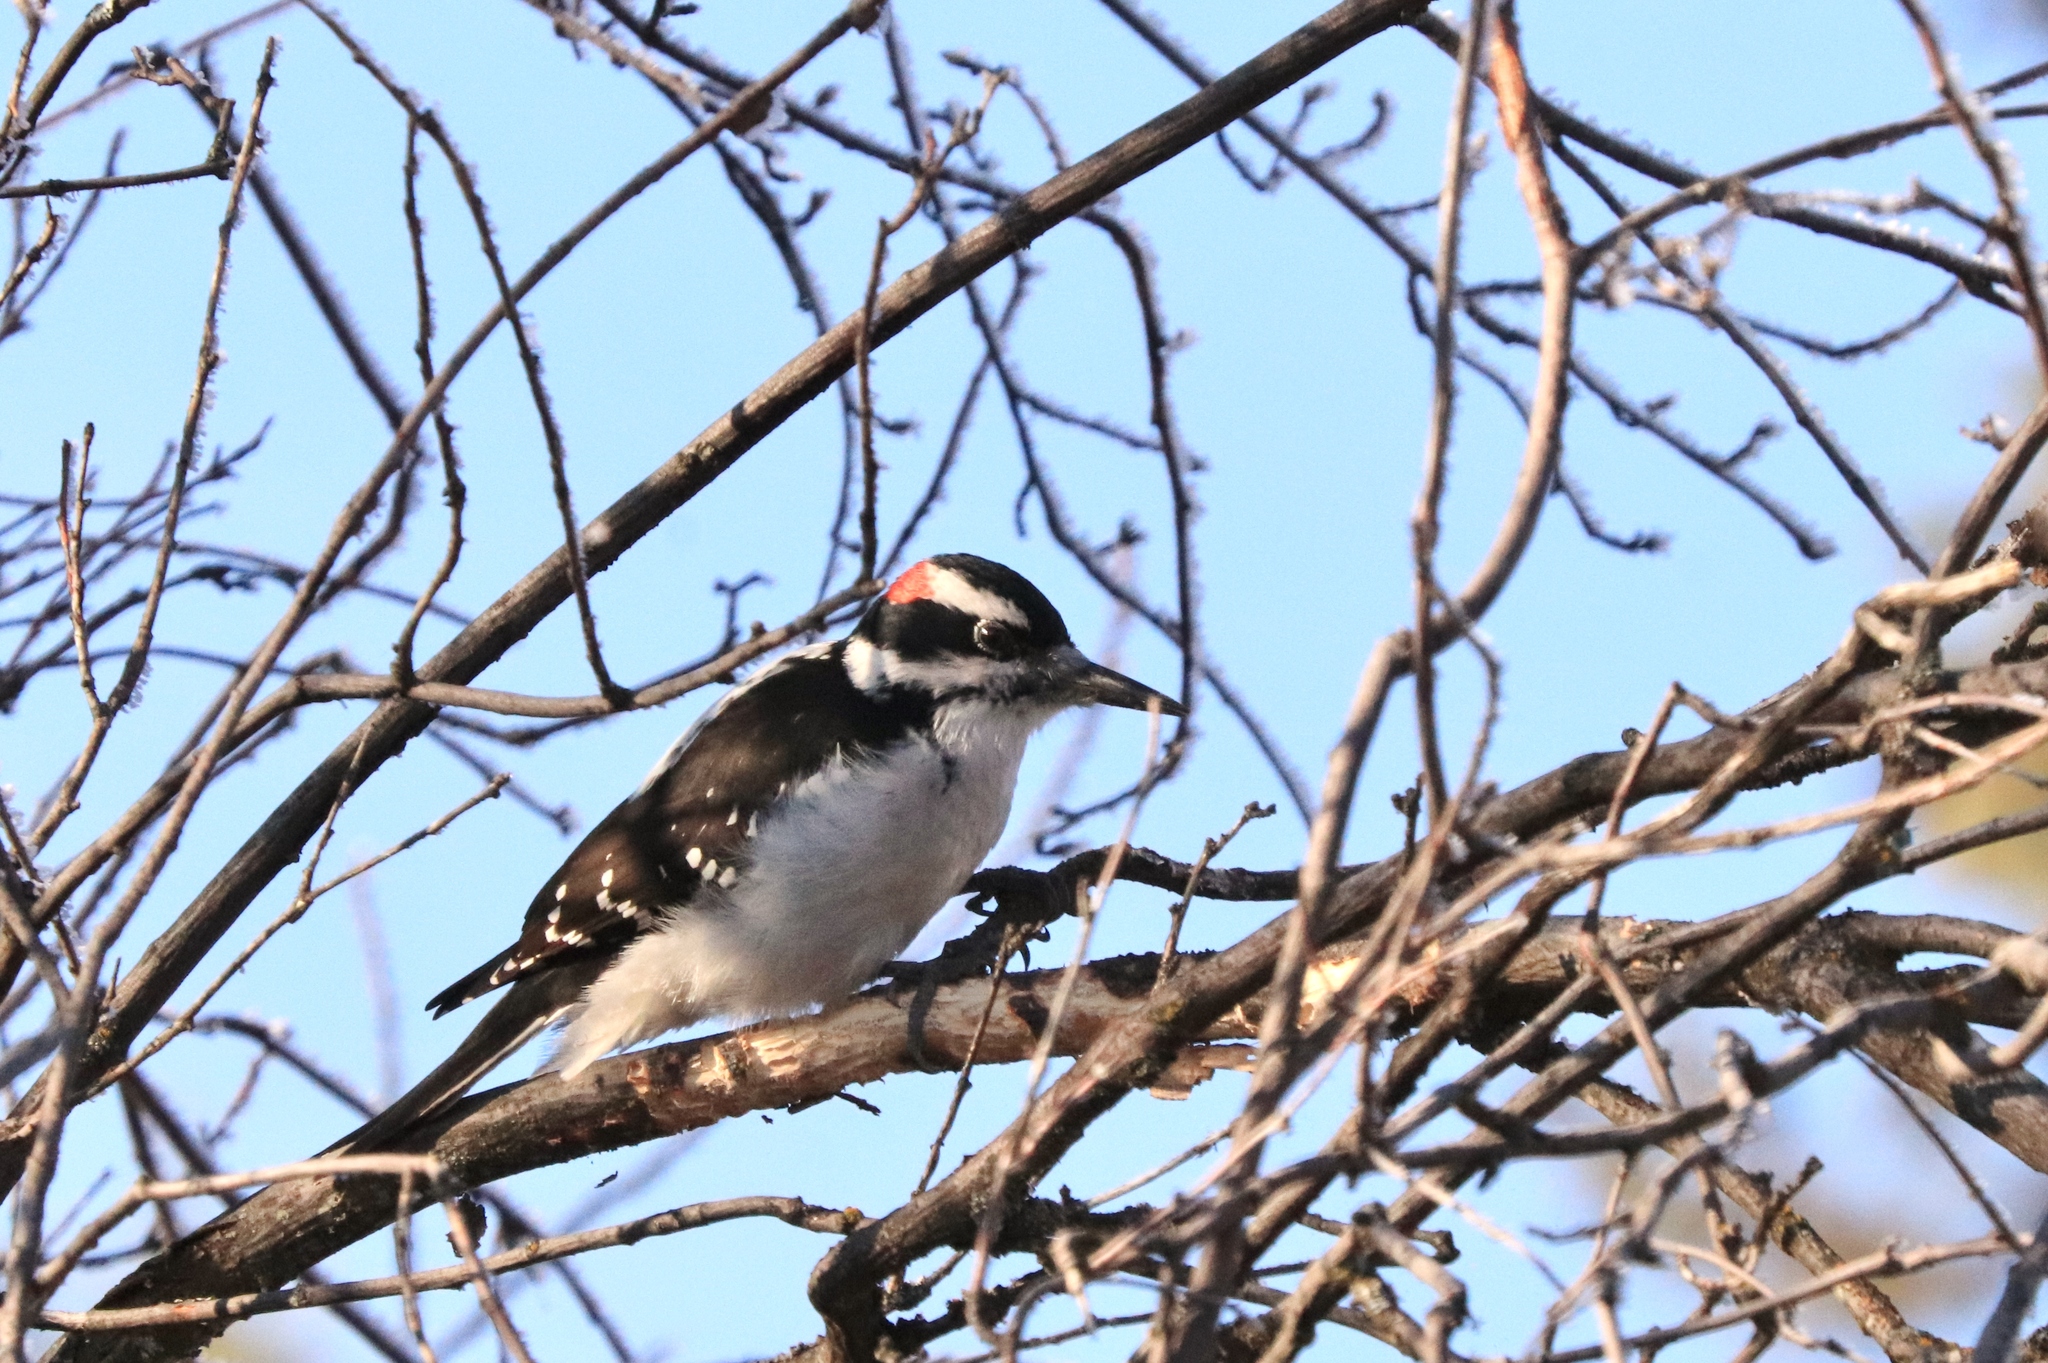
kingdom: Animalia
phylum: Chordata
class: Aves
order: Piciformes
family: Picidae
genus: Leuconotopicus
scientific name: Leuconotopicus villosus
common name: Hairy woodpecker
